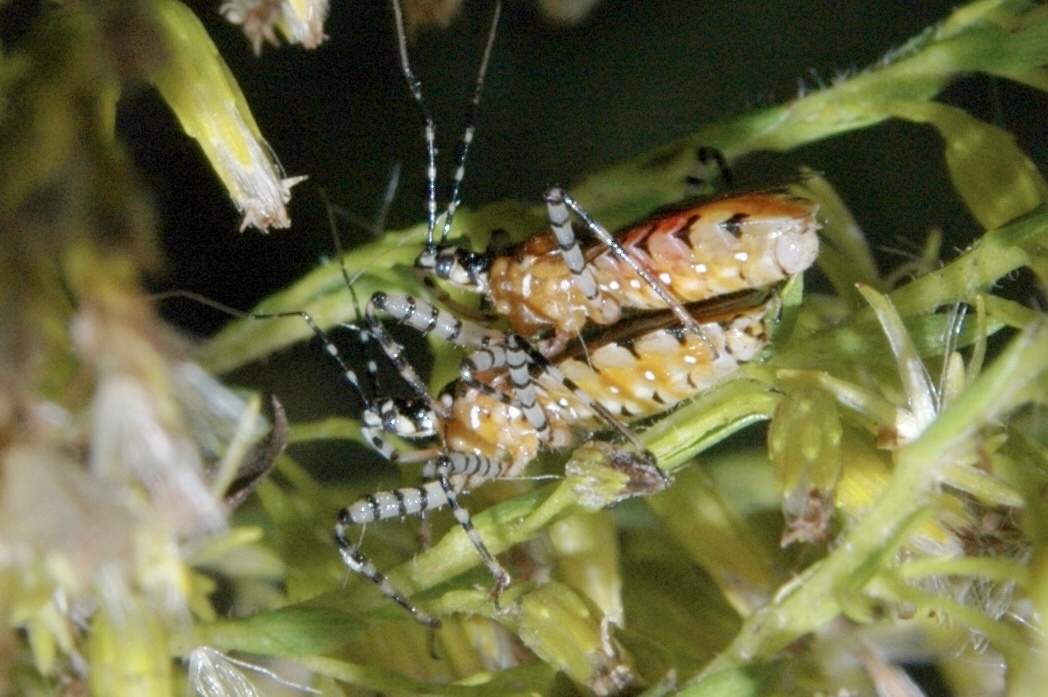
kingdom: Animalia
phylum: Arthropoda
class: Insecta
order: Hemiptera
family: Reduviidae
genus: Pselliopus
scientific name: Pselliopus cinctus
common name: Ringed assassin bug
